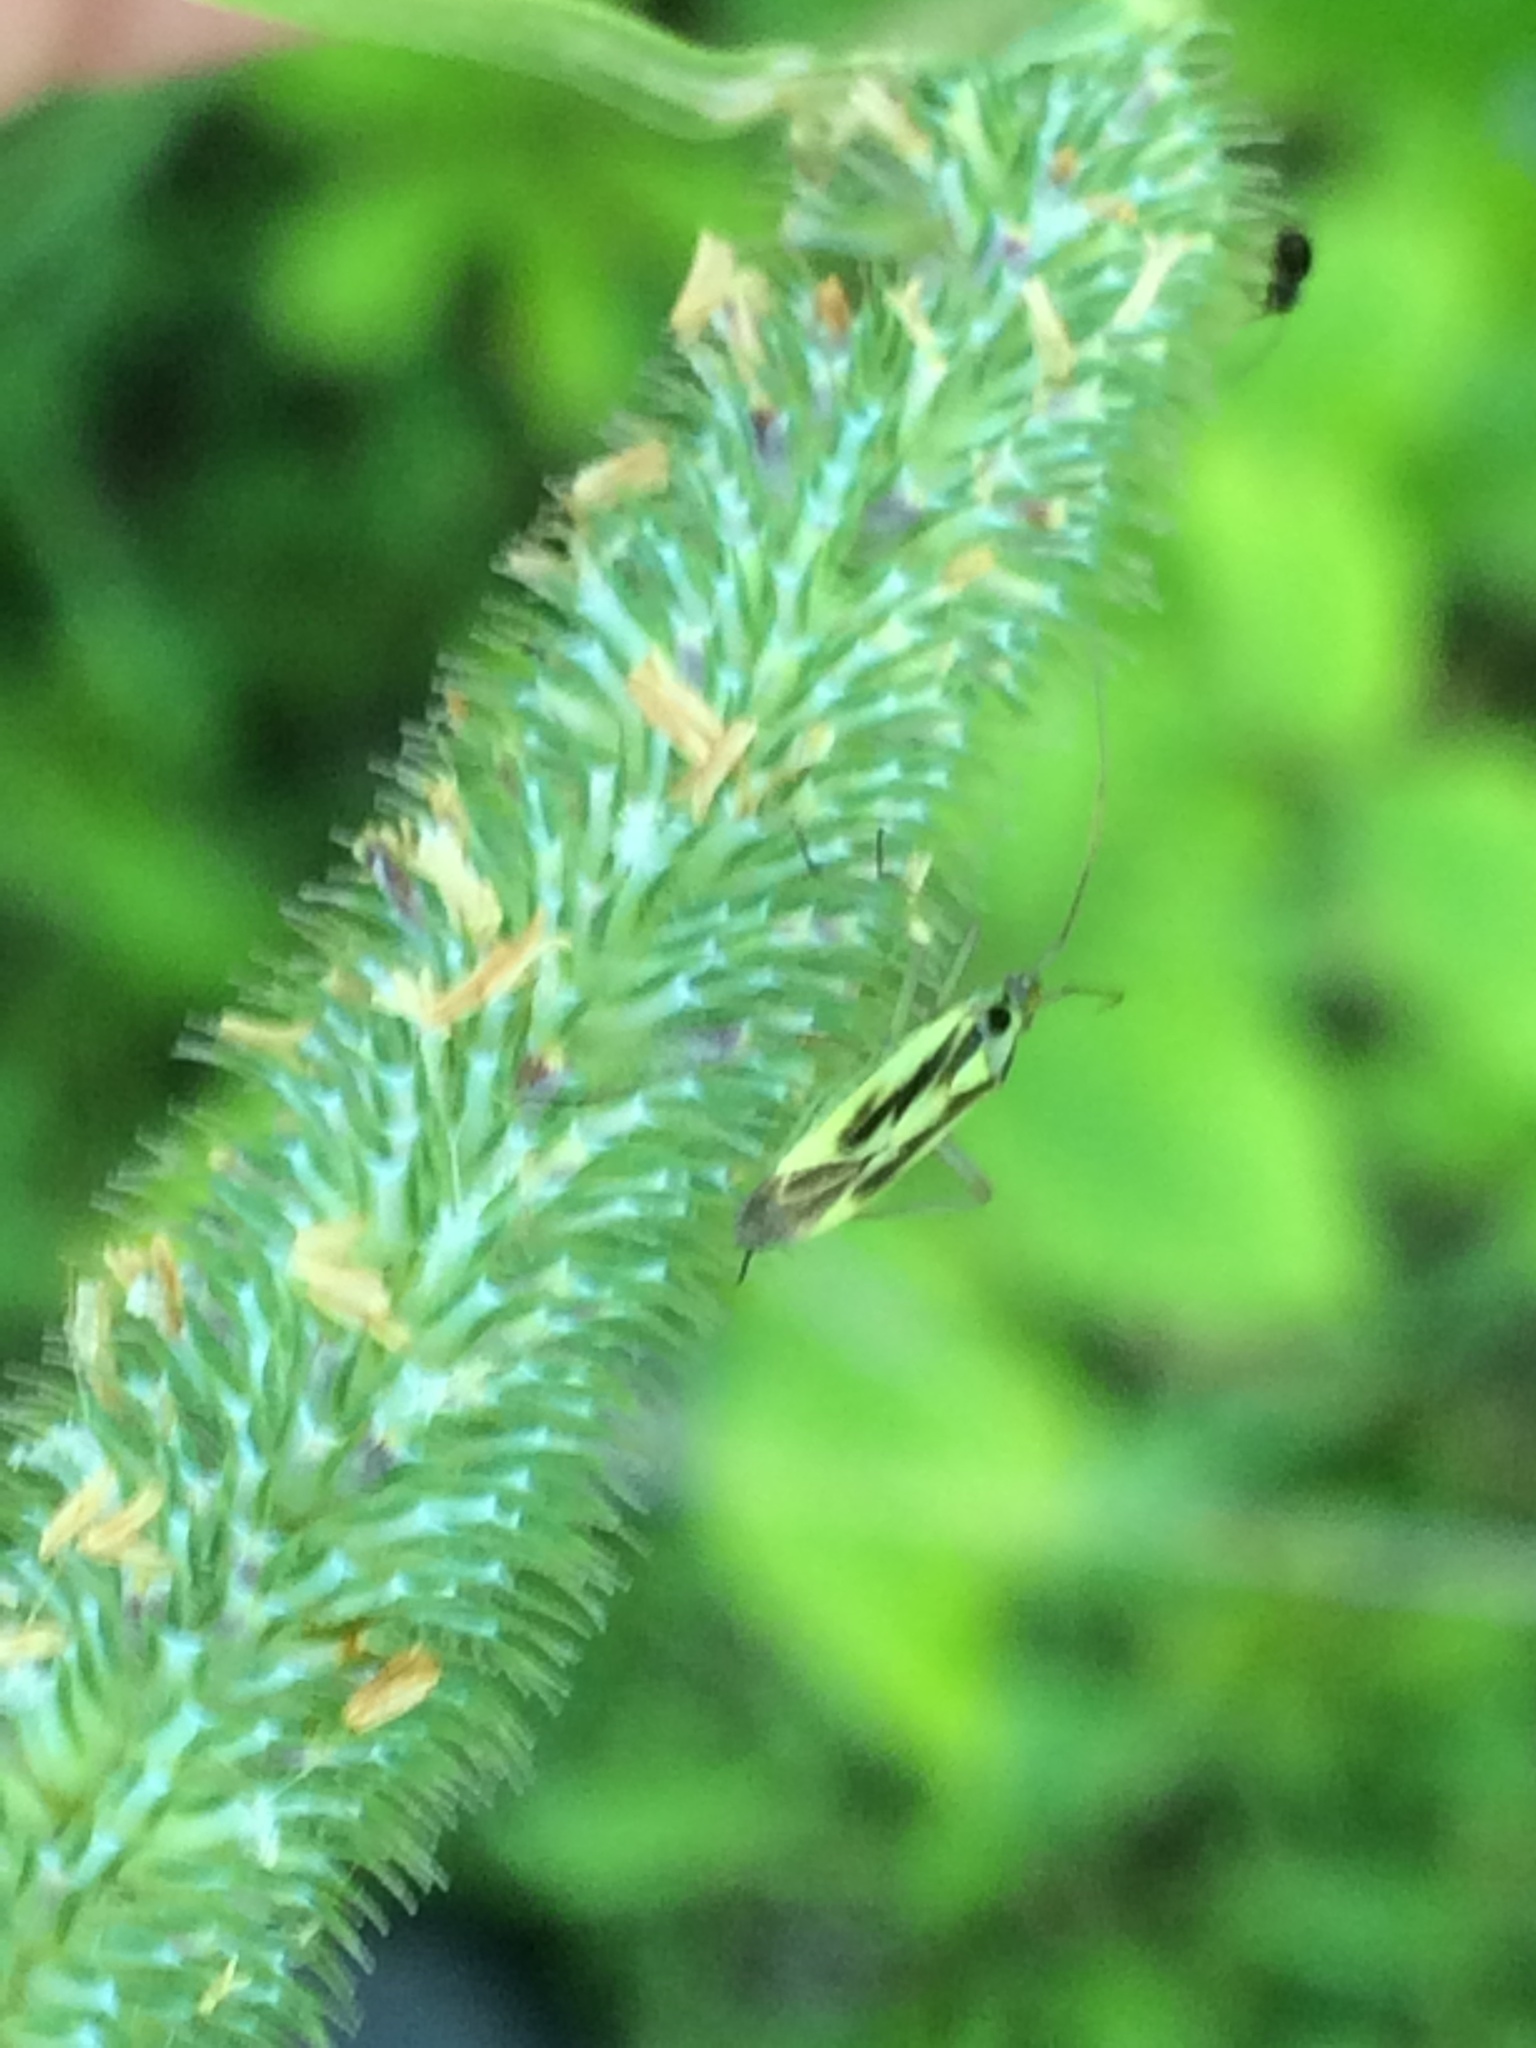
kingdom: Animalia
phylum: Arthropoda
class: Insecta
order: Hemiptera
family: Miridae
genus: Stenotus
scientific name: Stenotus binotatus
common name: Plant bug
